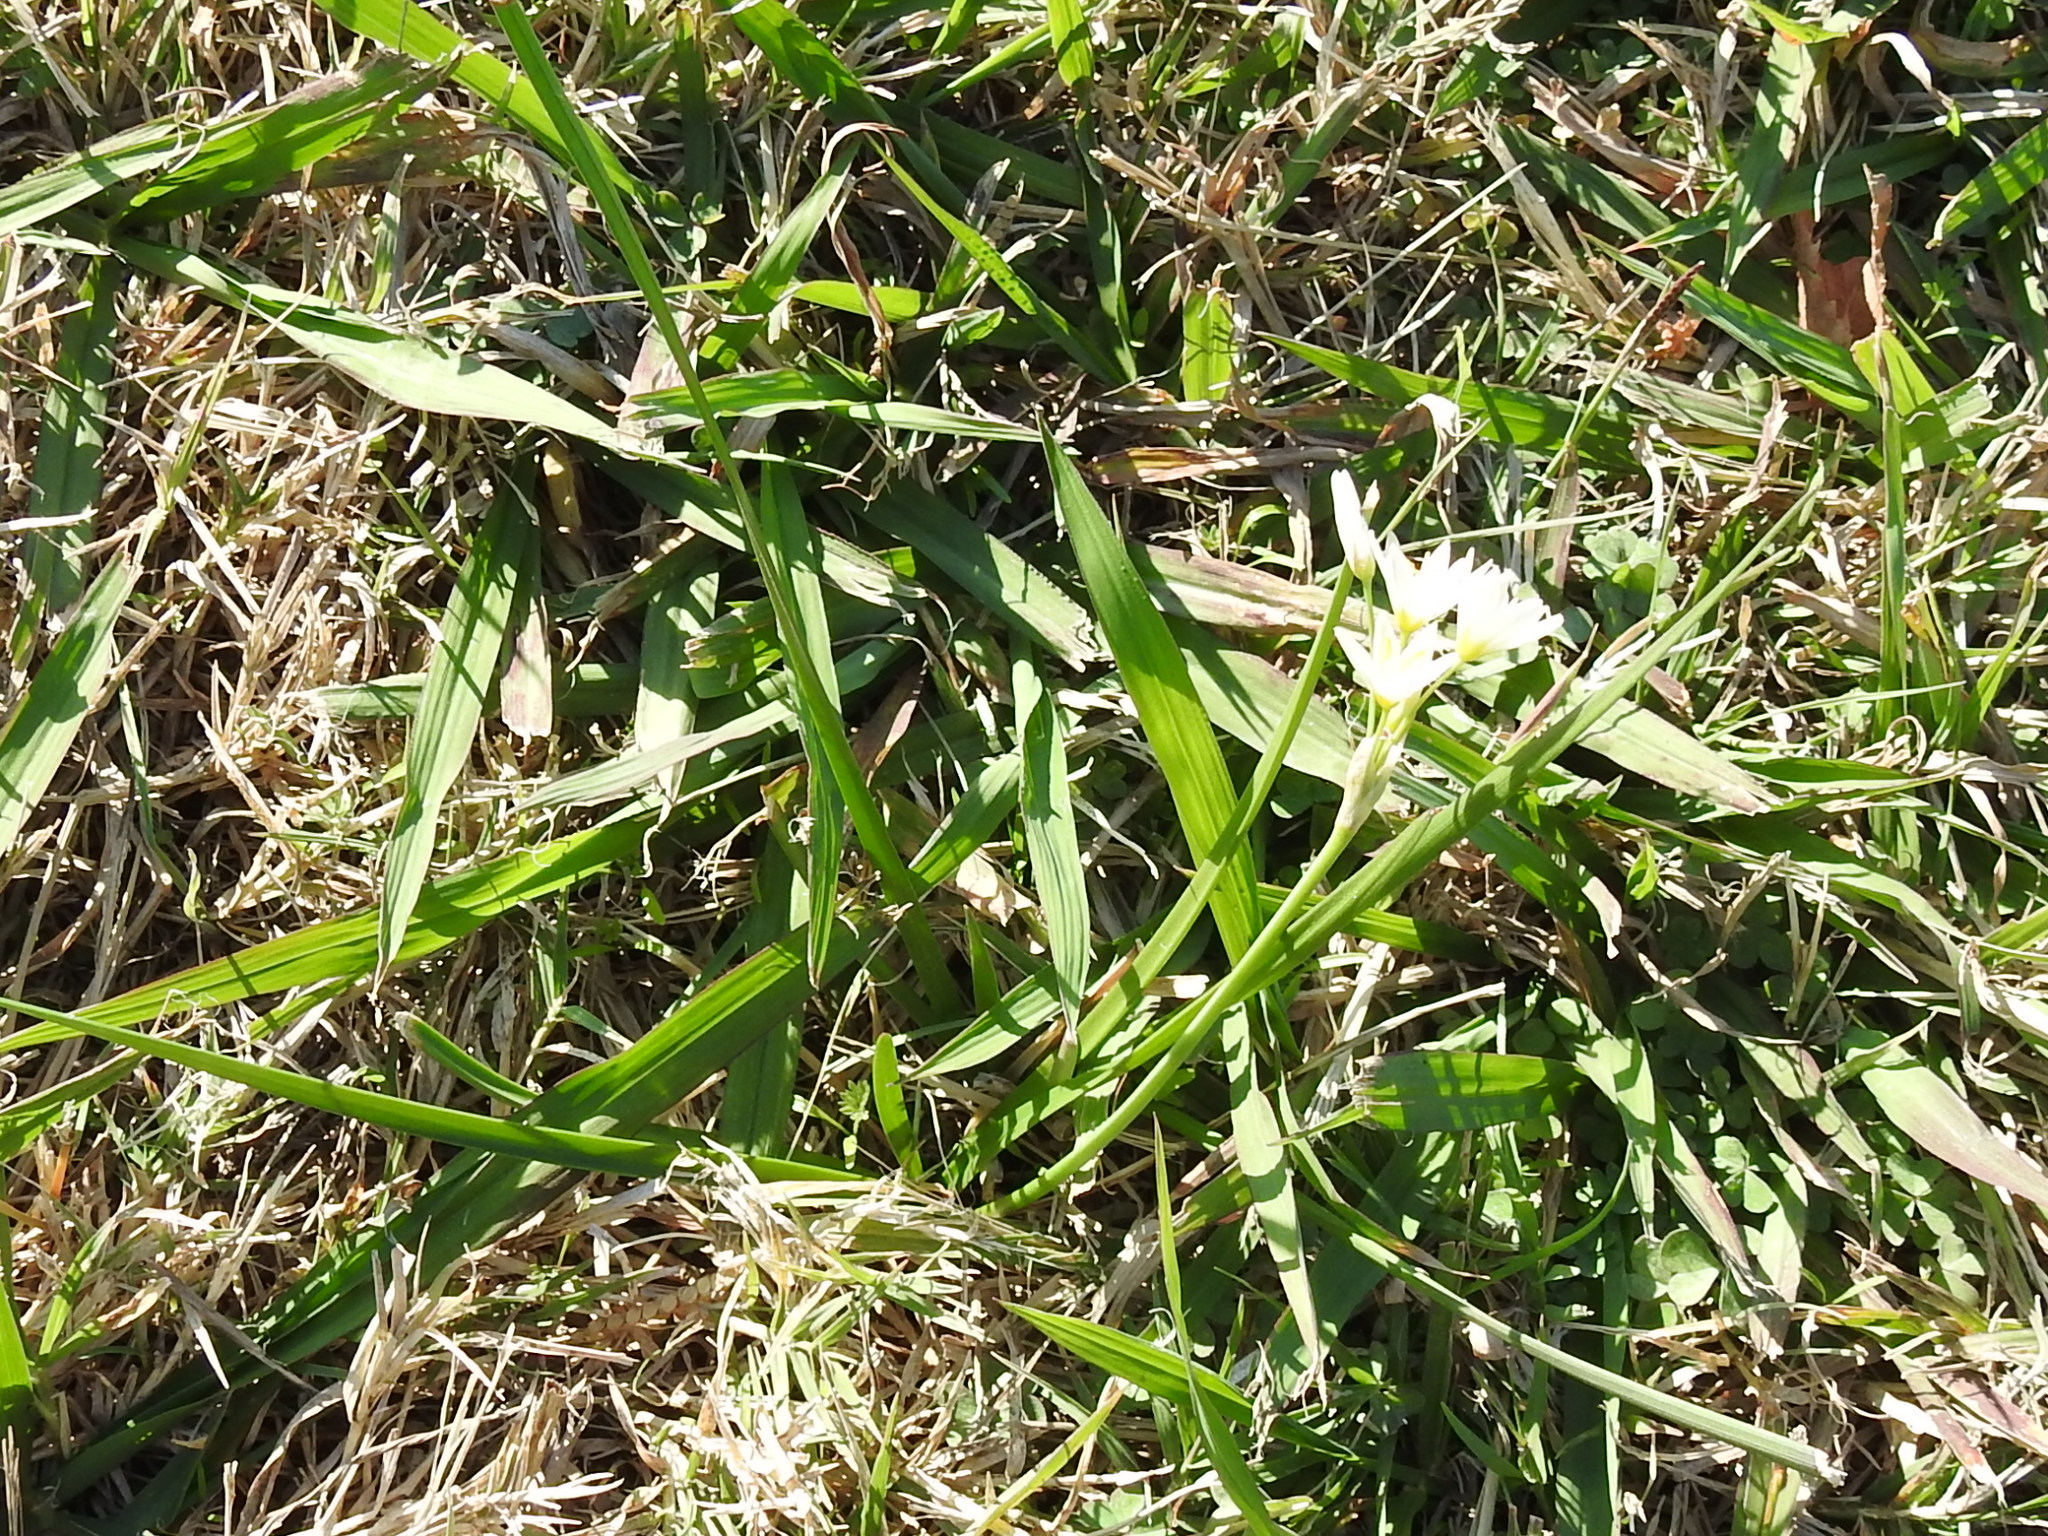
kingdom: Plantae
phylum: Tracheophyta
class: Liliopsida
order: Asparagales
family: Amaryllidaceae
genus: Nothoscordum
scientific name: Nothoscordum bivalve
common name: Crow-poison
